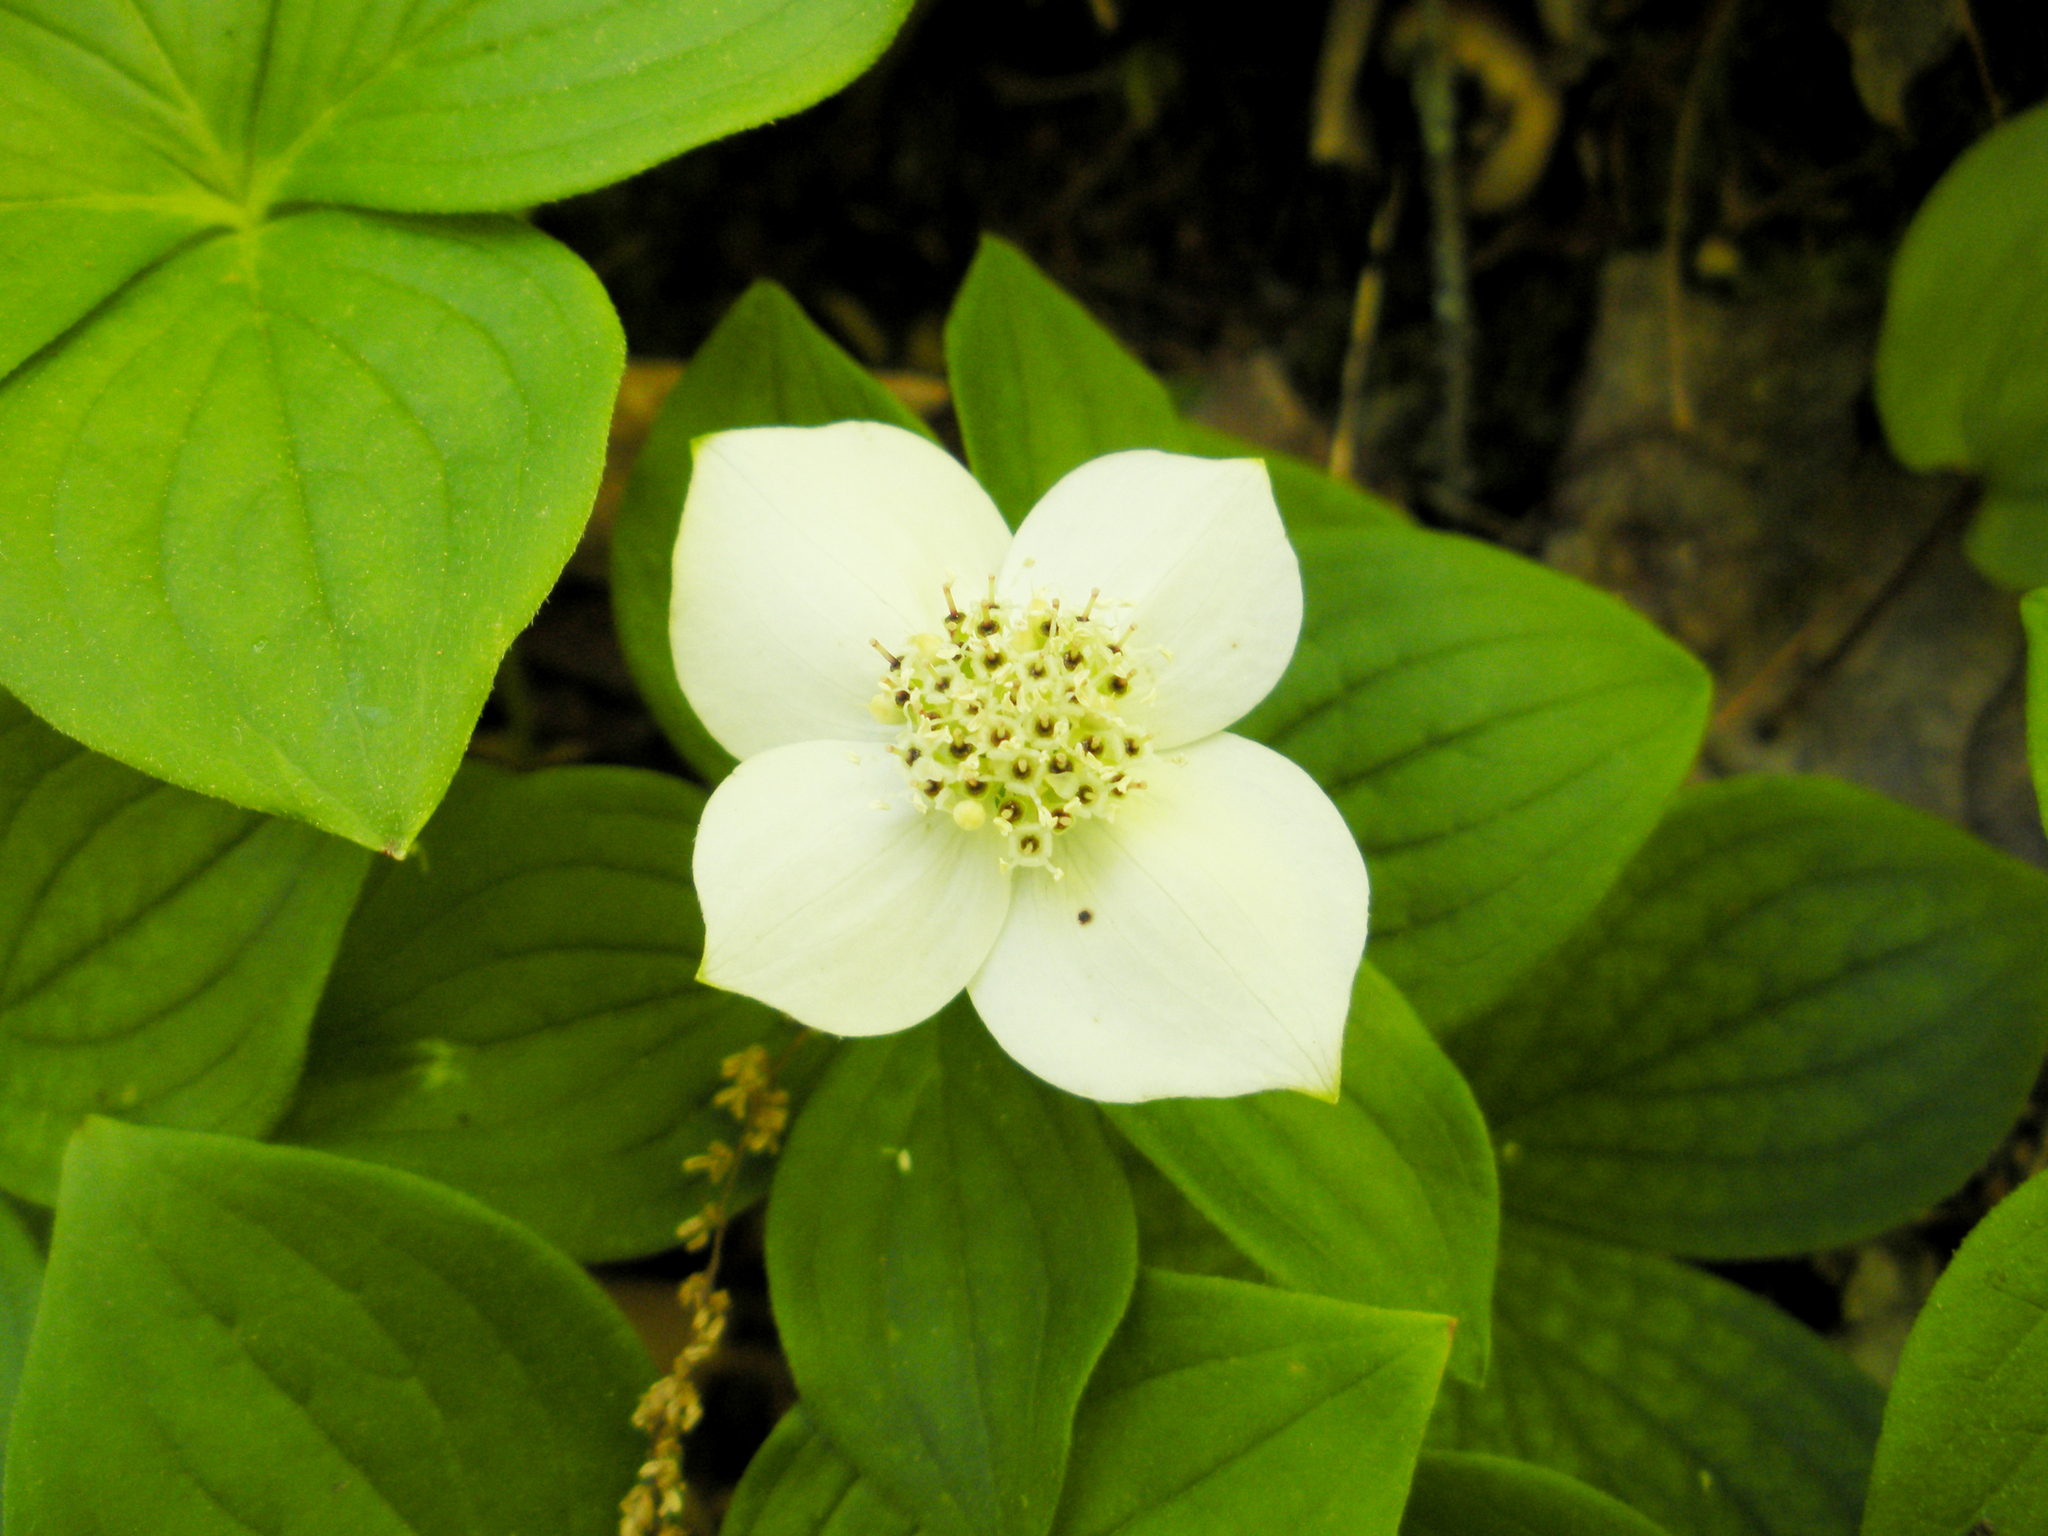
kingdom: Plantae
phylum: Tracheophyta
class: Magnoliopsida
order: Cornales
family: Cornaceae
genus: Cornus
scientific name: Cornus canadensis
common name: Creeping dogwood
